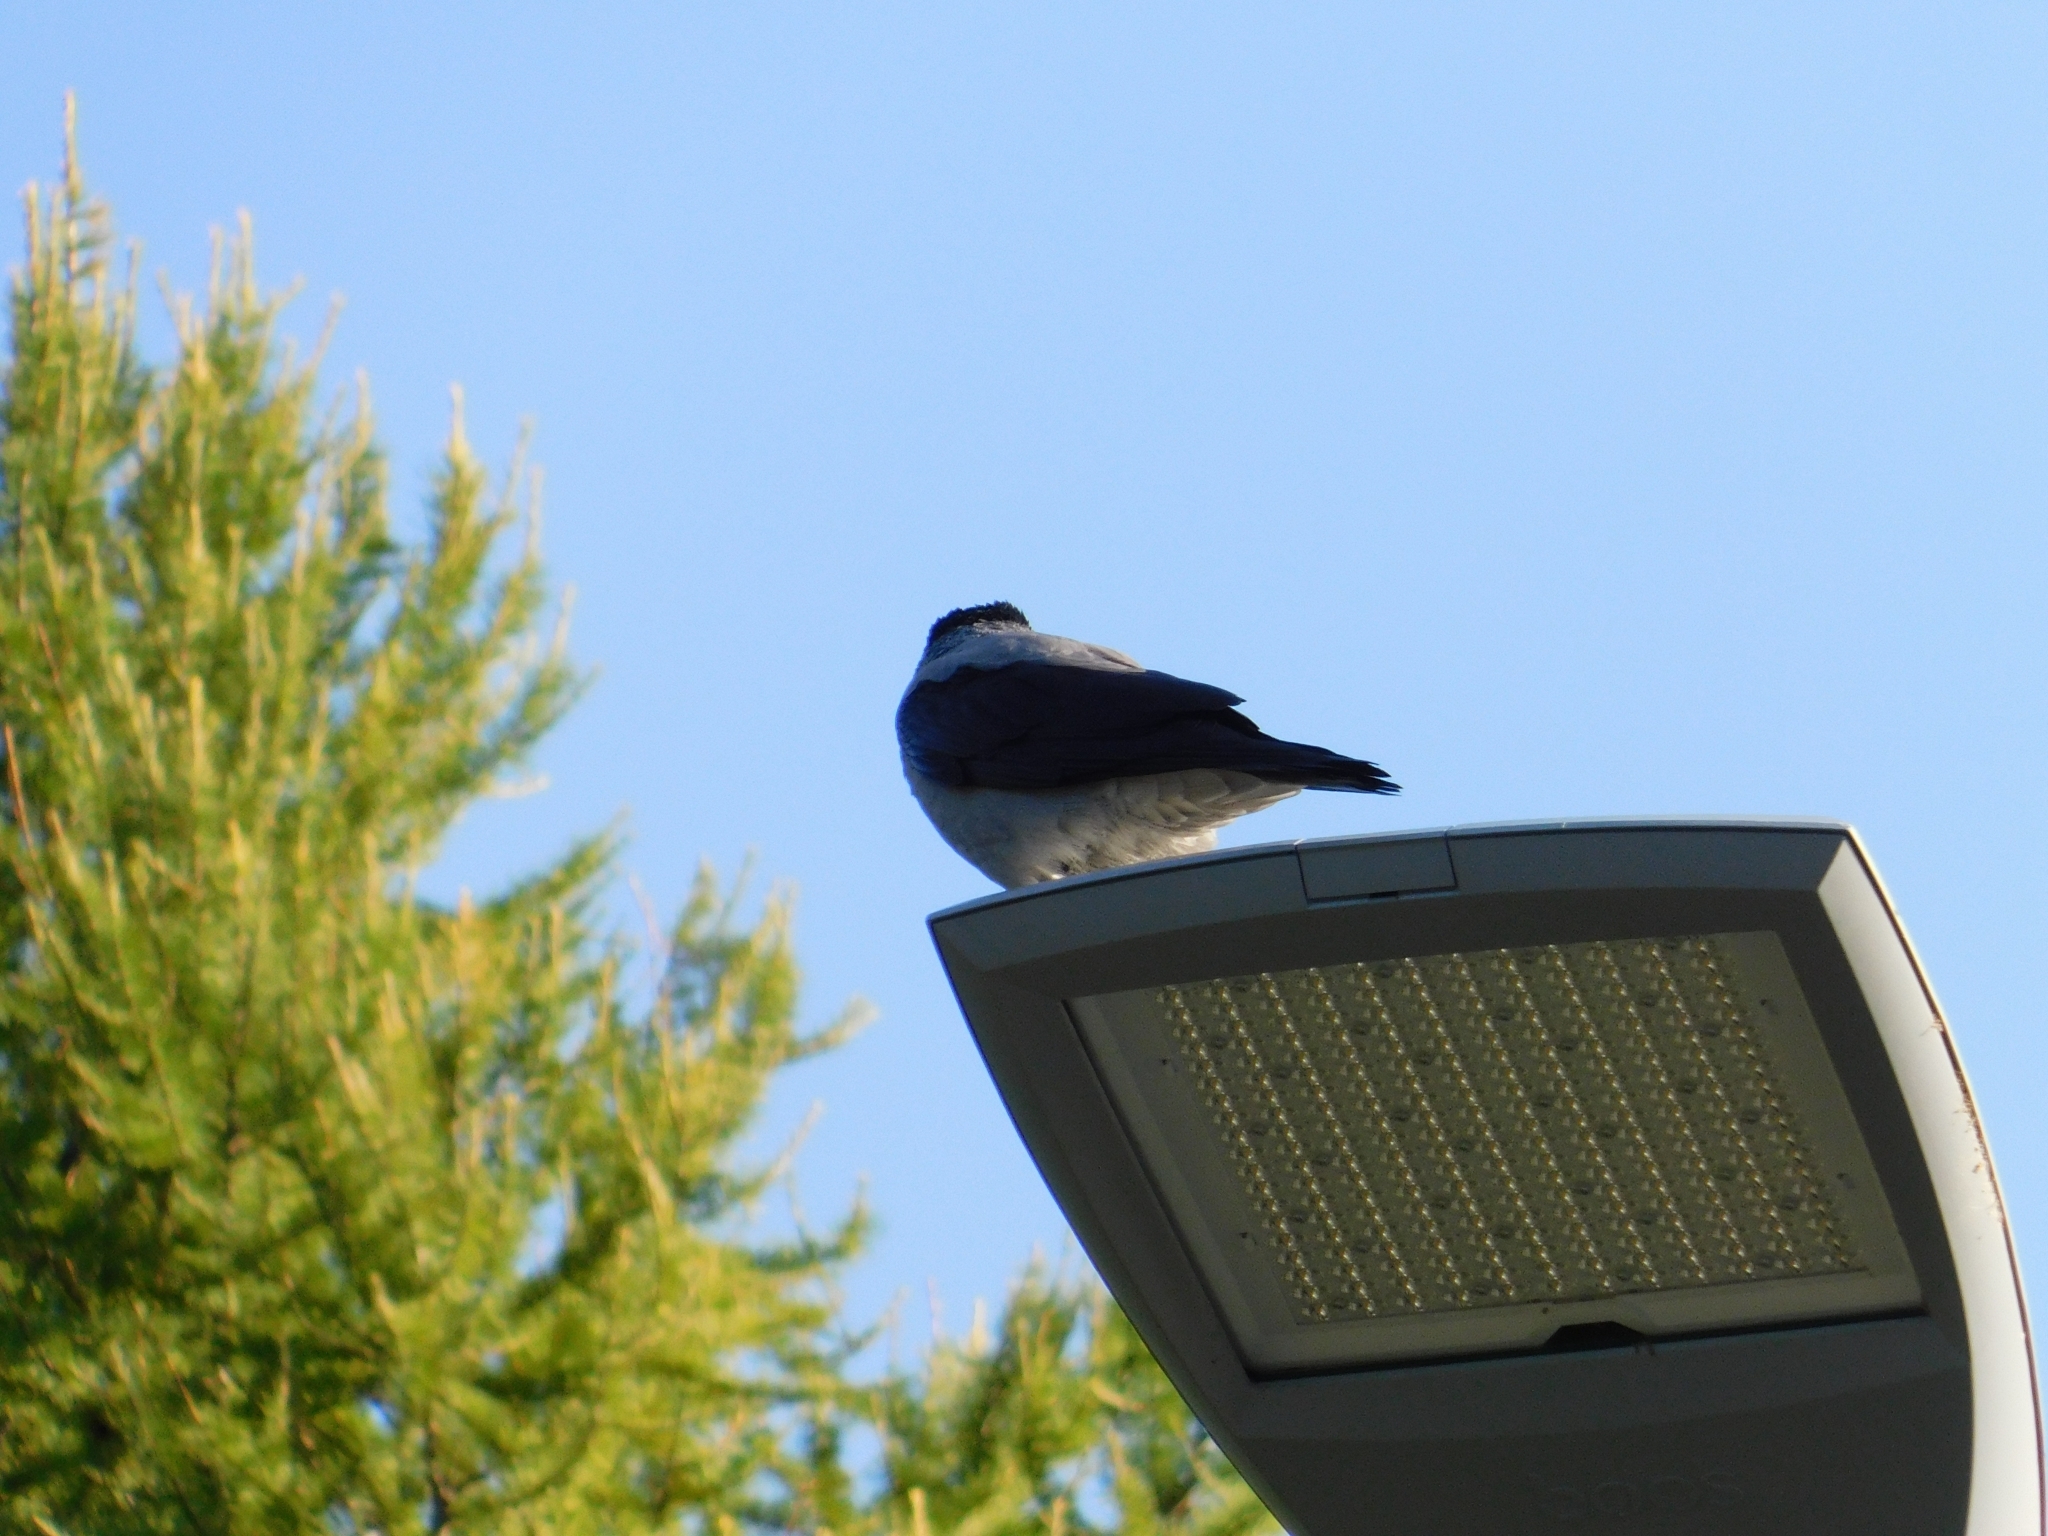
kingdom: Animalia
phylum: Chordata
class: Aves
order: Passeriformes
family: Corvidae
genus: Corvus
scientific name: Corvus cornix
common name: Hooded crow
